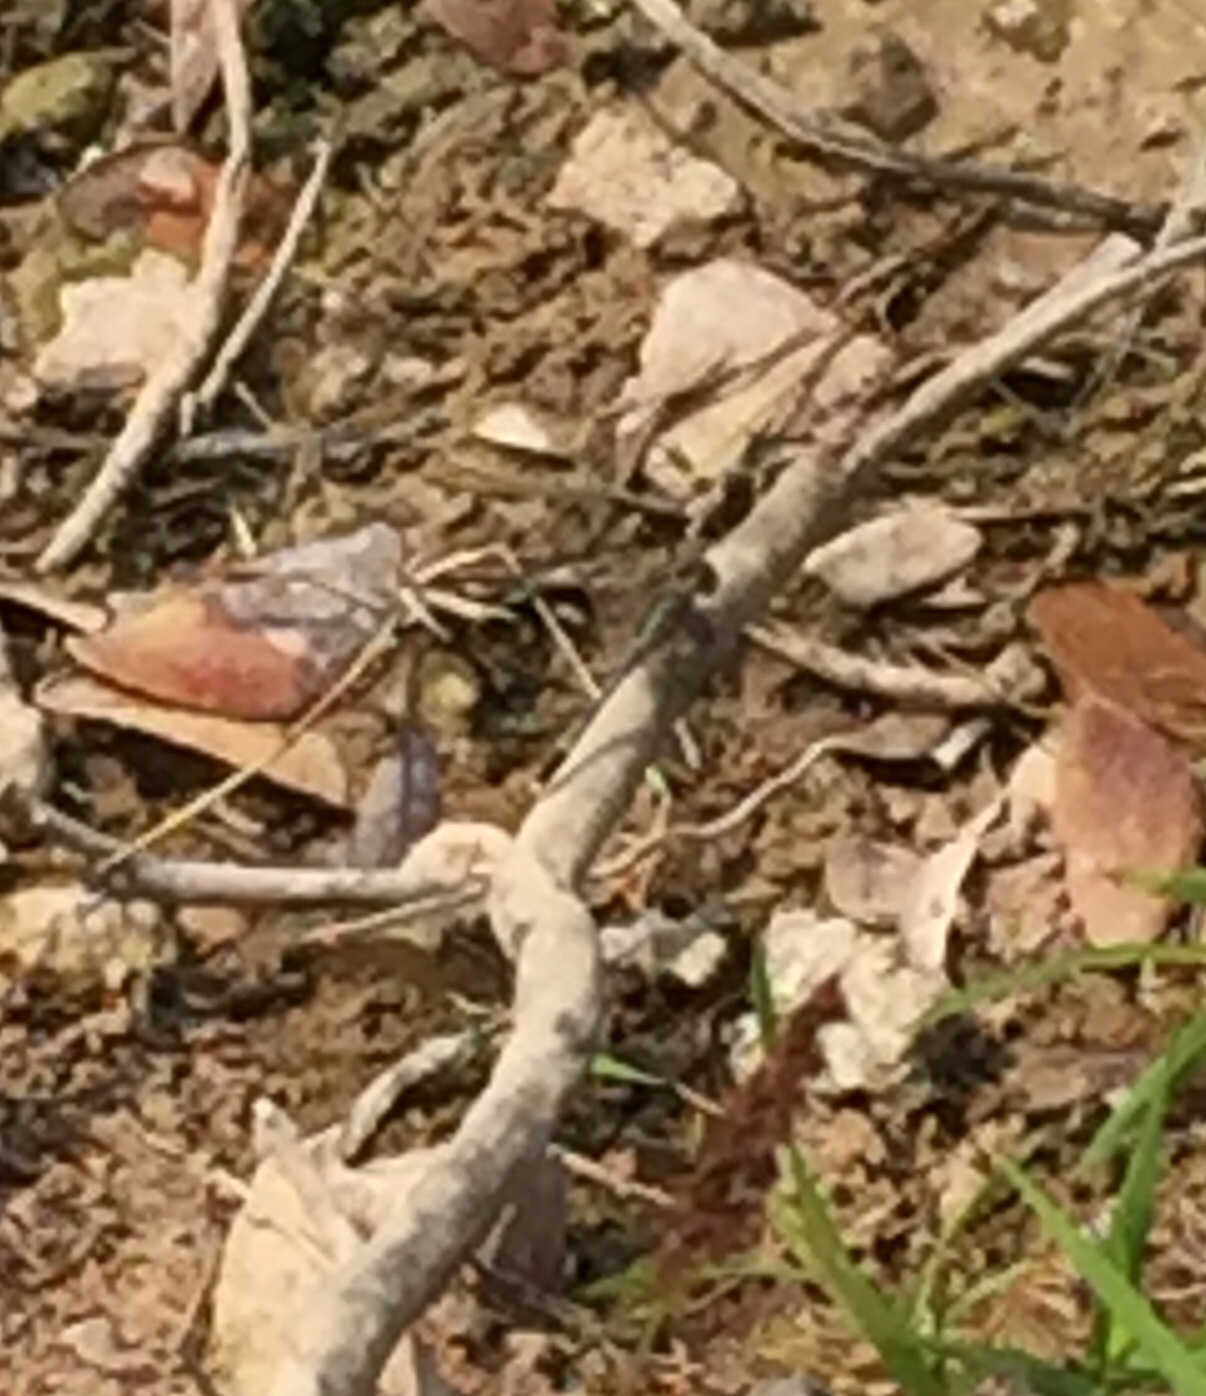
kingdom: Animalia
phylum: Arthropoda
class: Insecta
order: Odonata
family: Libellulidae
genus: Diplacodes
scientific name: Diplacodes trivialis
